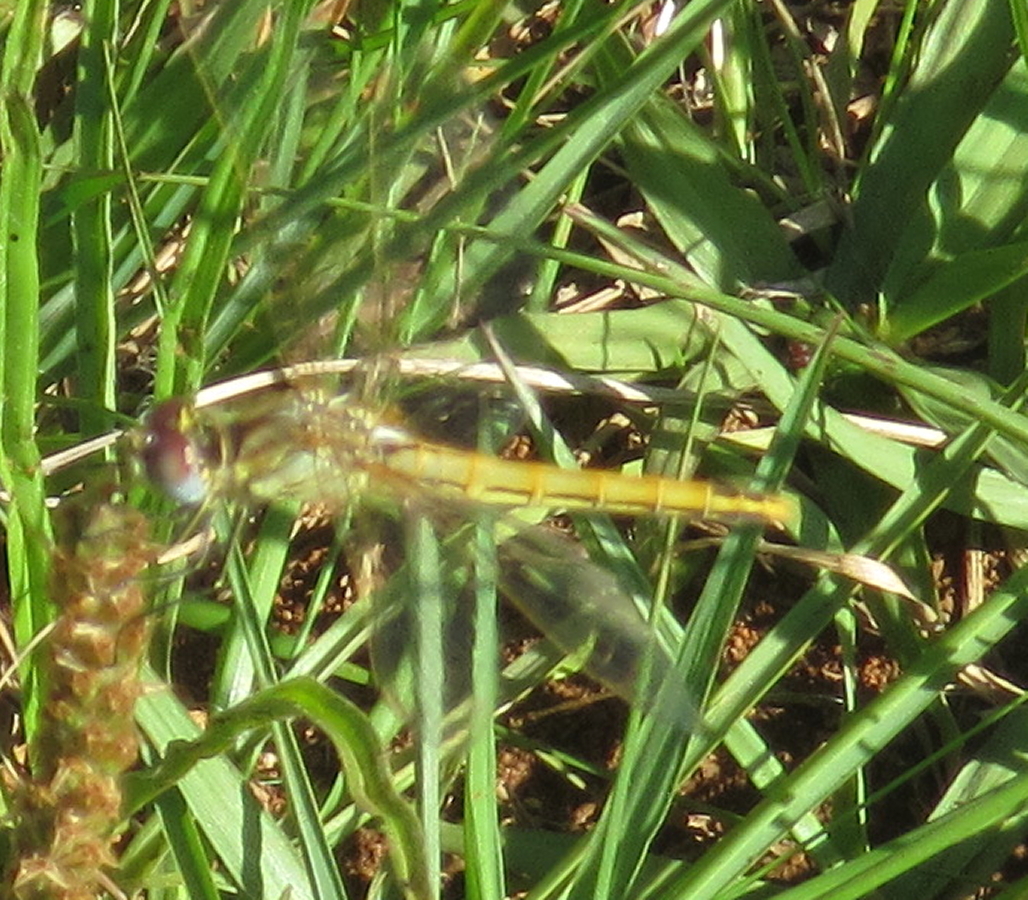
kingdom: Animalia
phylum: Arthropoda
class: Insecta
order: Odonata
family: Libellulidae
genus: Sympetrum
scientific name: Sympetrum fonscolombii
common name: Red-veined darter
